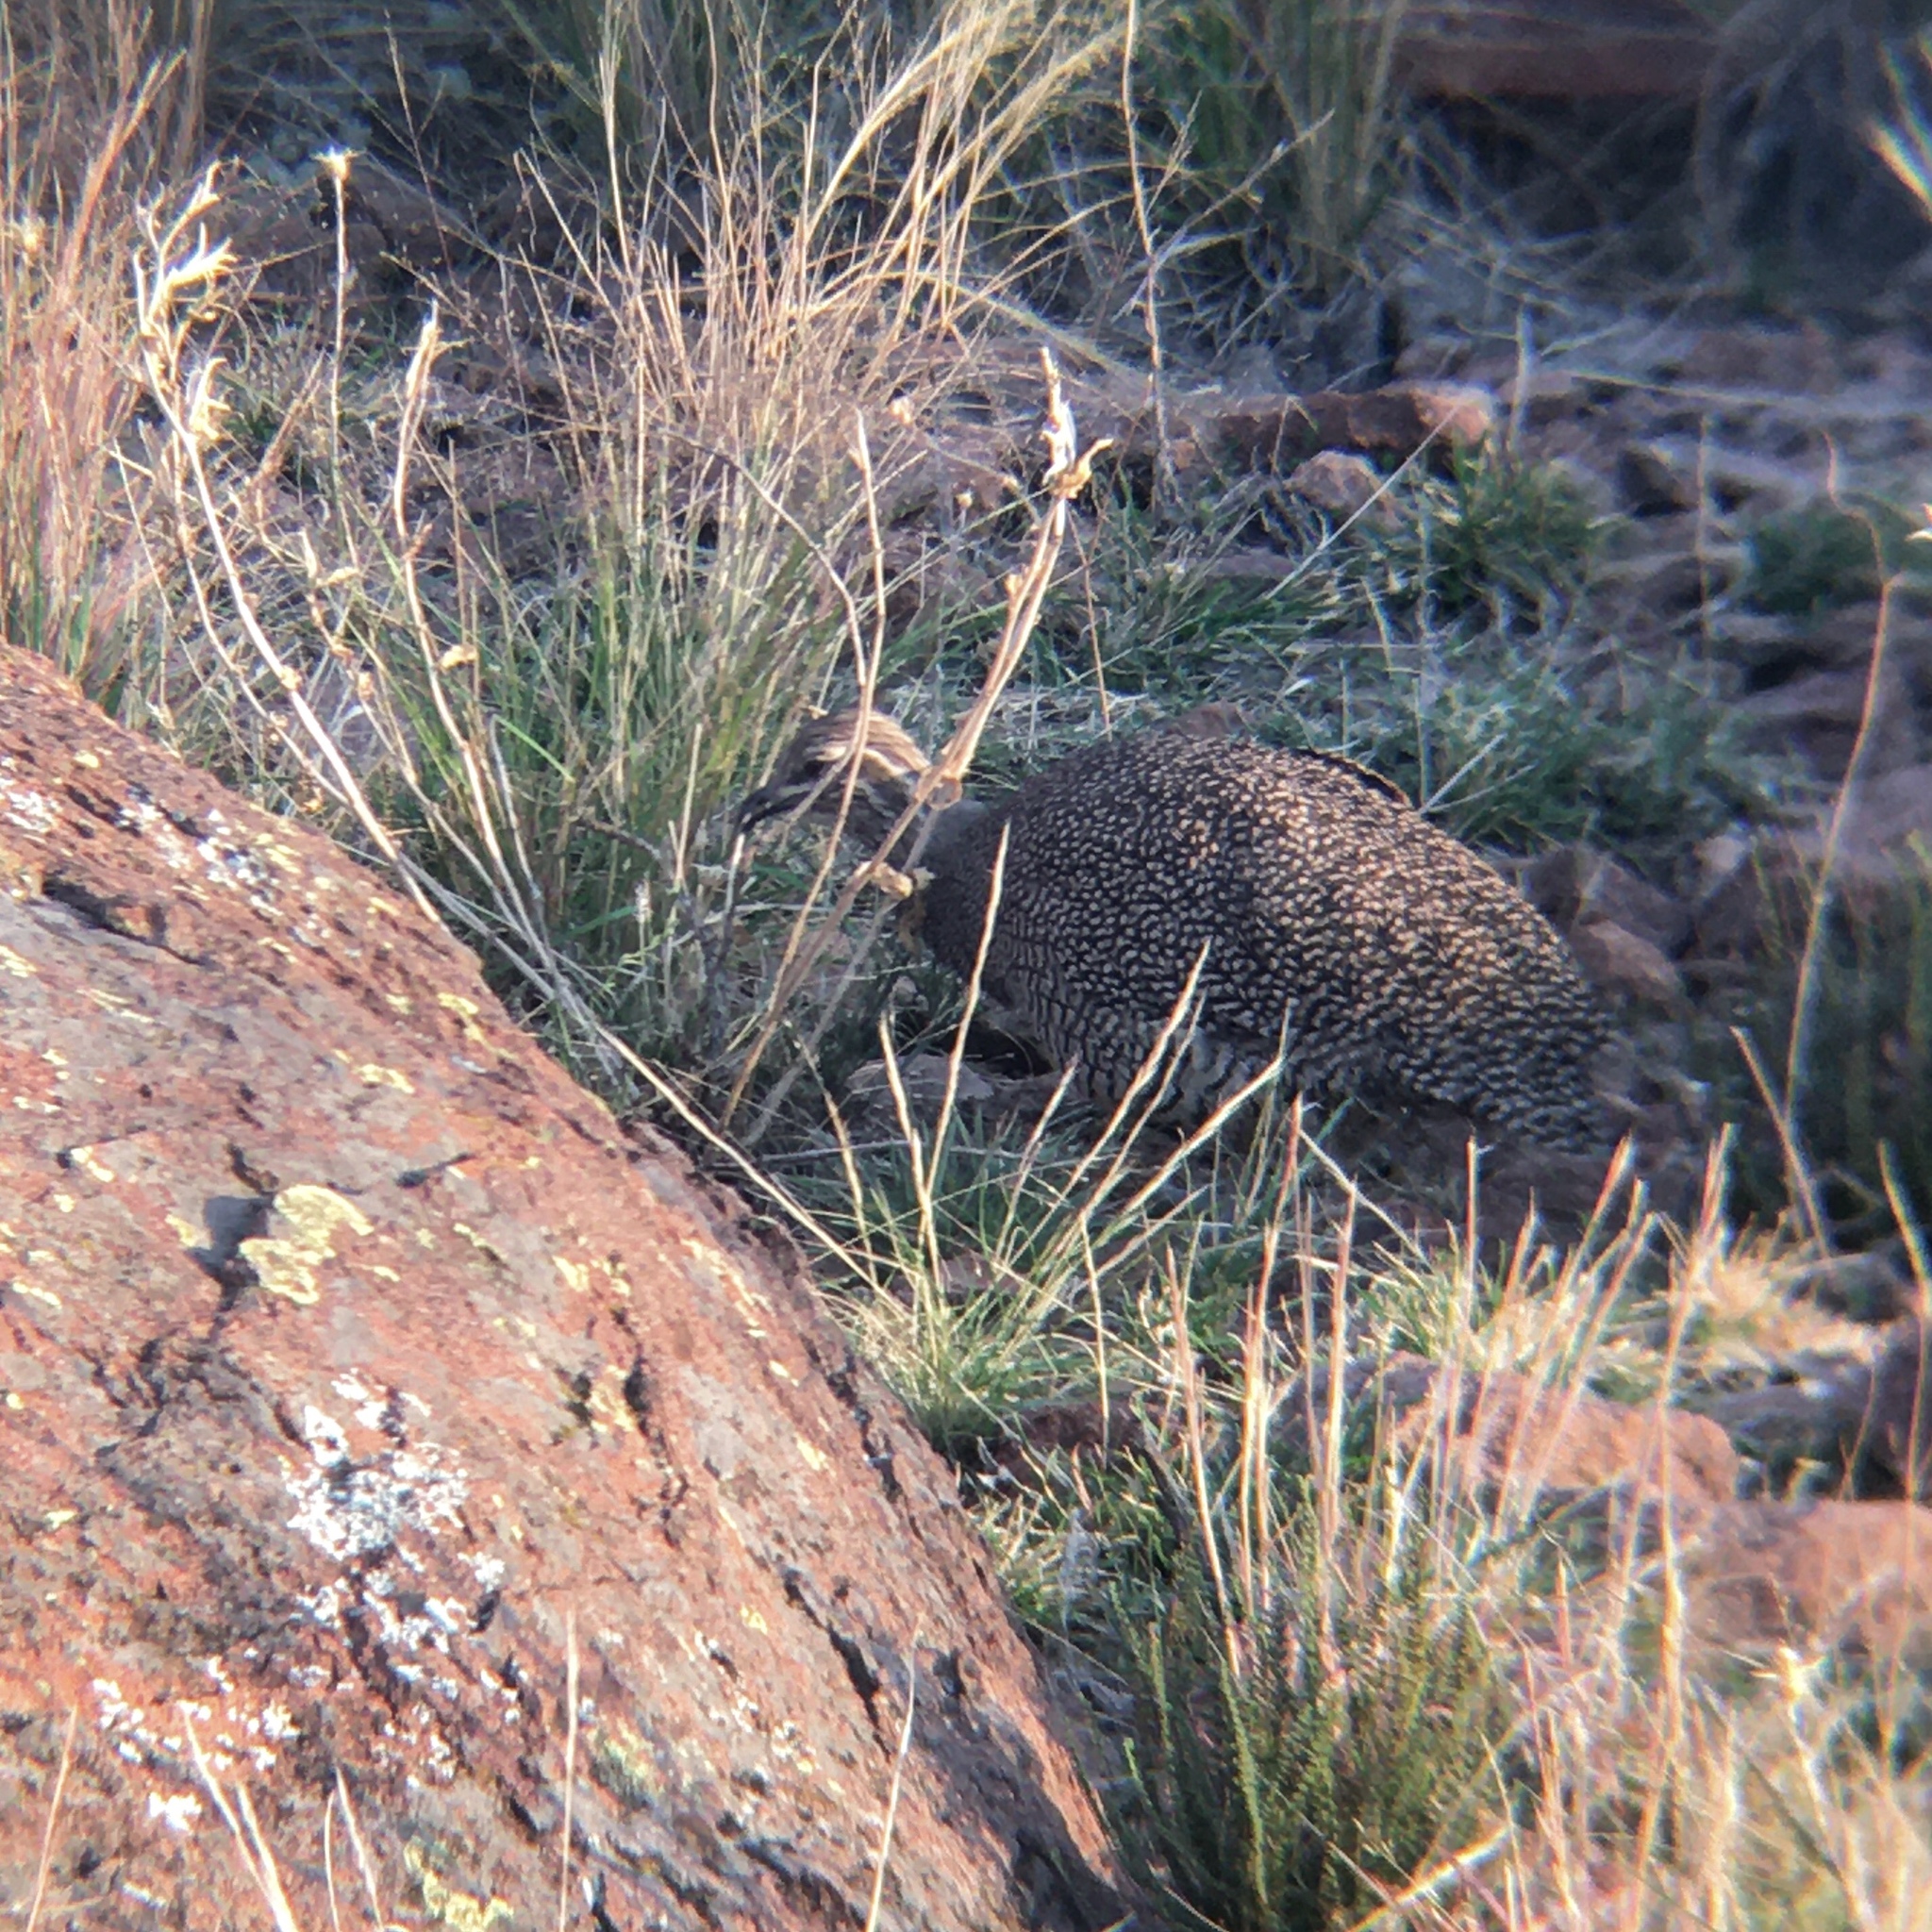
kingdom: Animalia
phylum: Chordata
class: Aves
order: Tinamiformes
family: Tinamidae
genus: Eudromia
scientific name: Eudromia elegans
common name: Elegant crested tinamou
